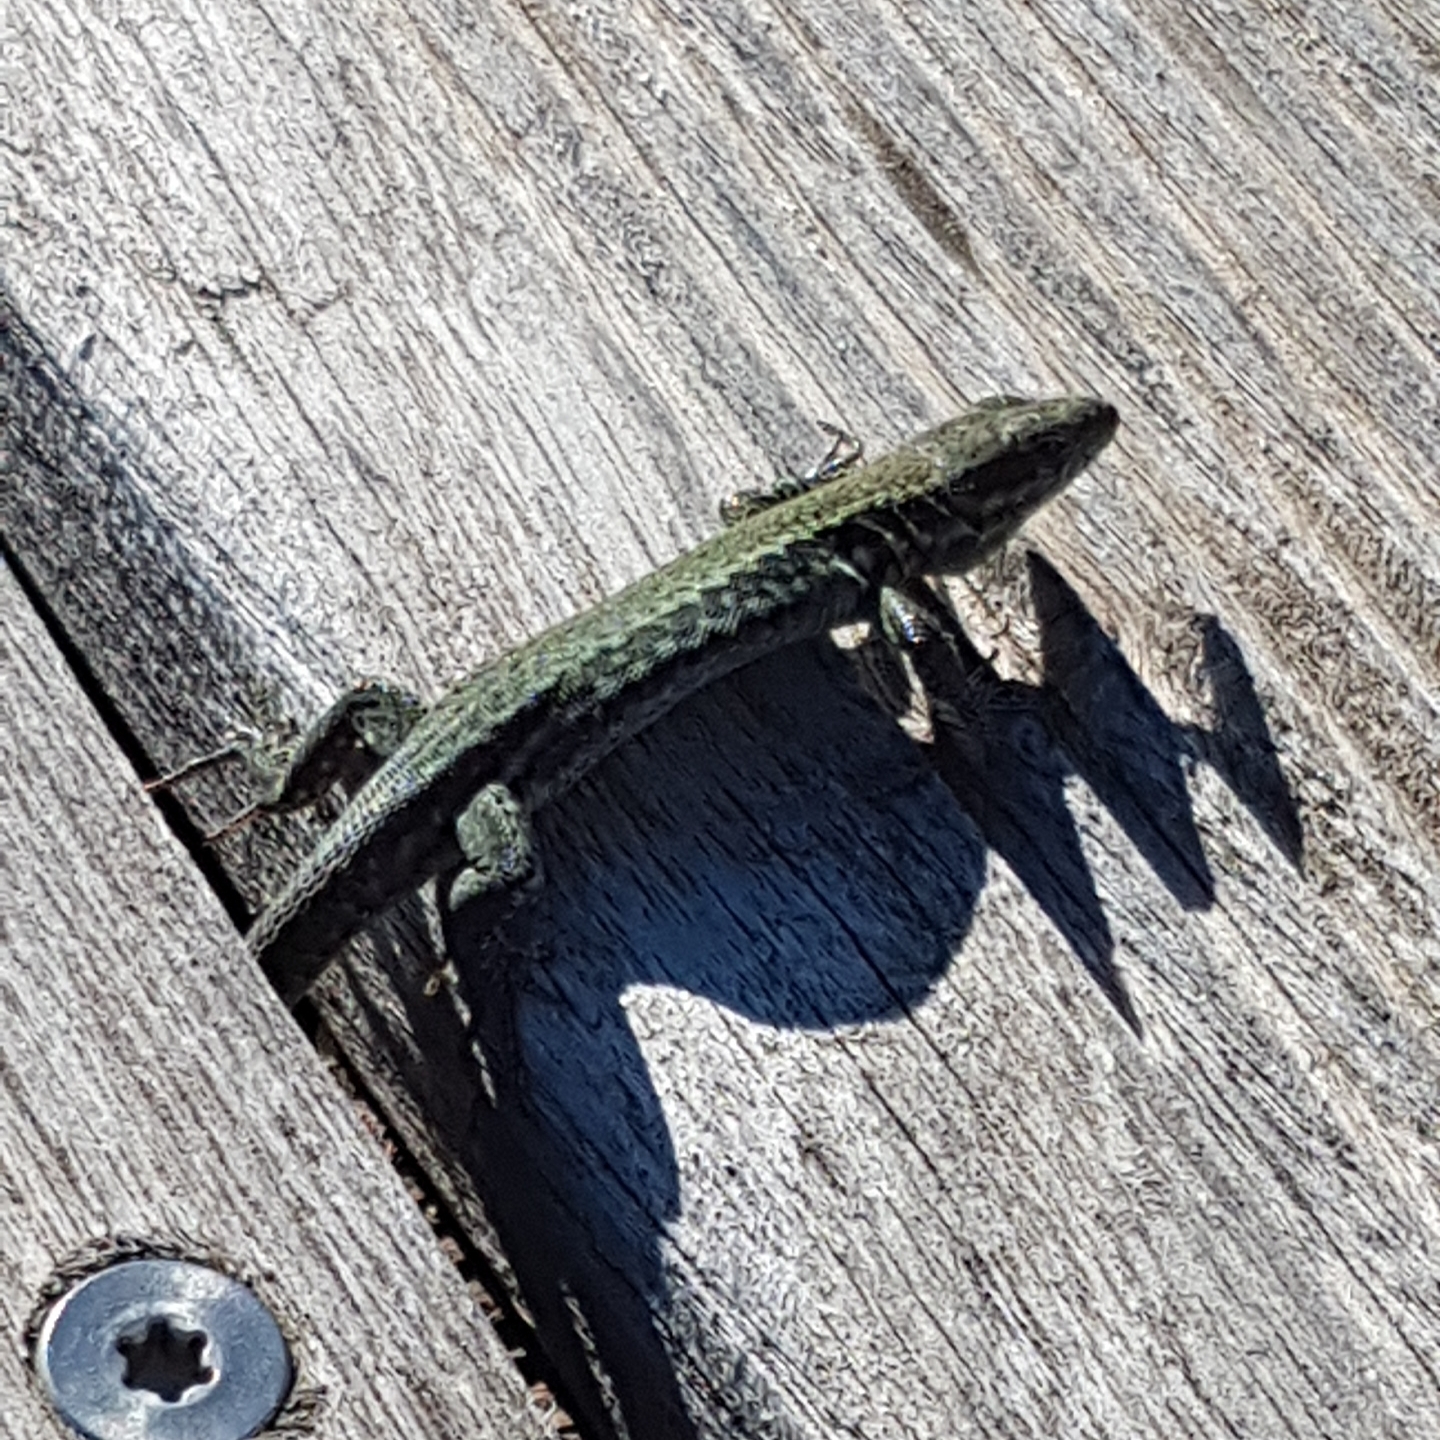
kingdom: Animalia
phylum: Chordata
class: Squamata
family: Lacertidae
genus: Podarcis
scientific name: Podarcis muralis
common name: Common wall lizard
